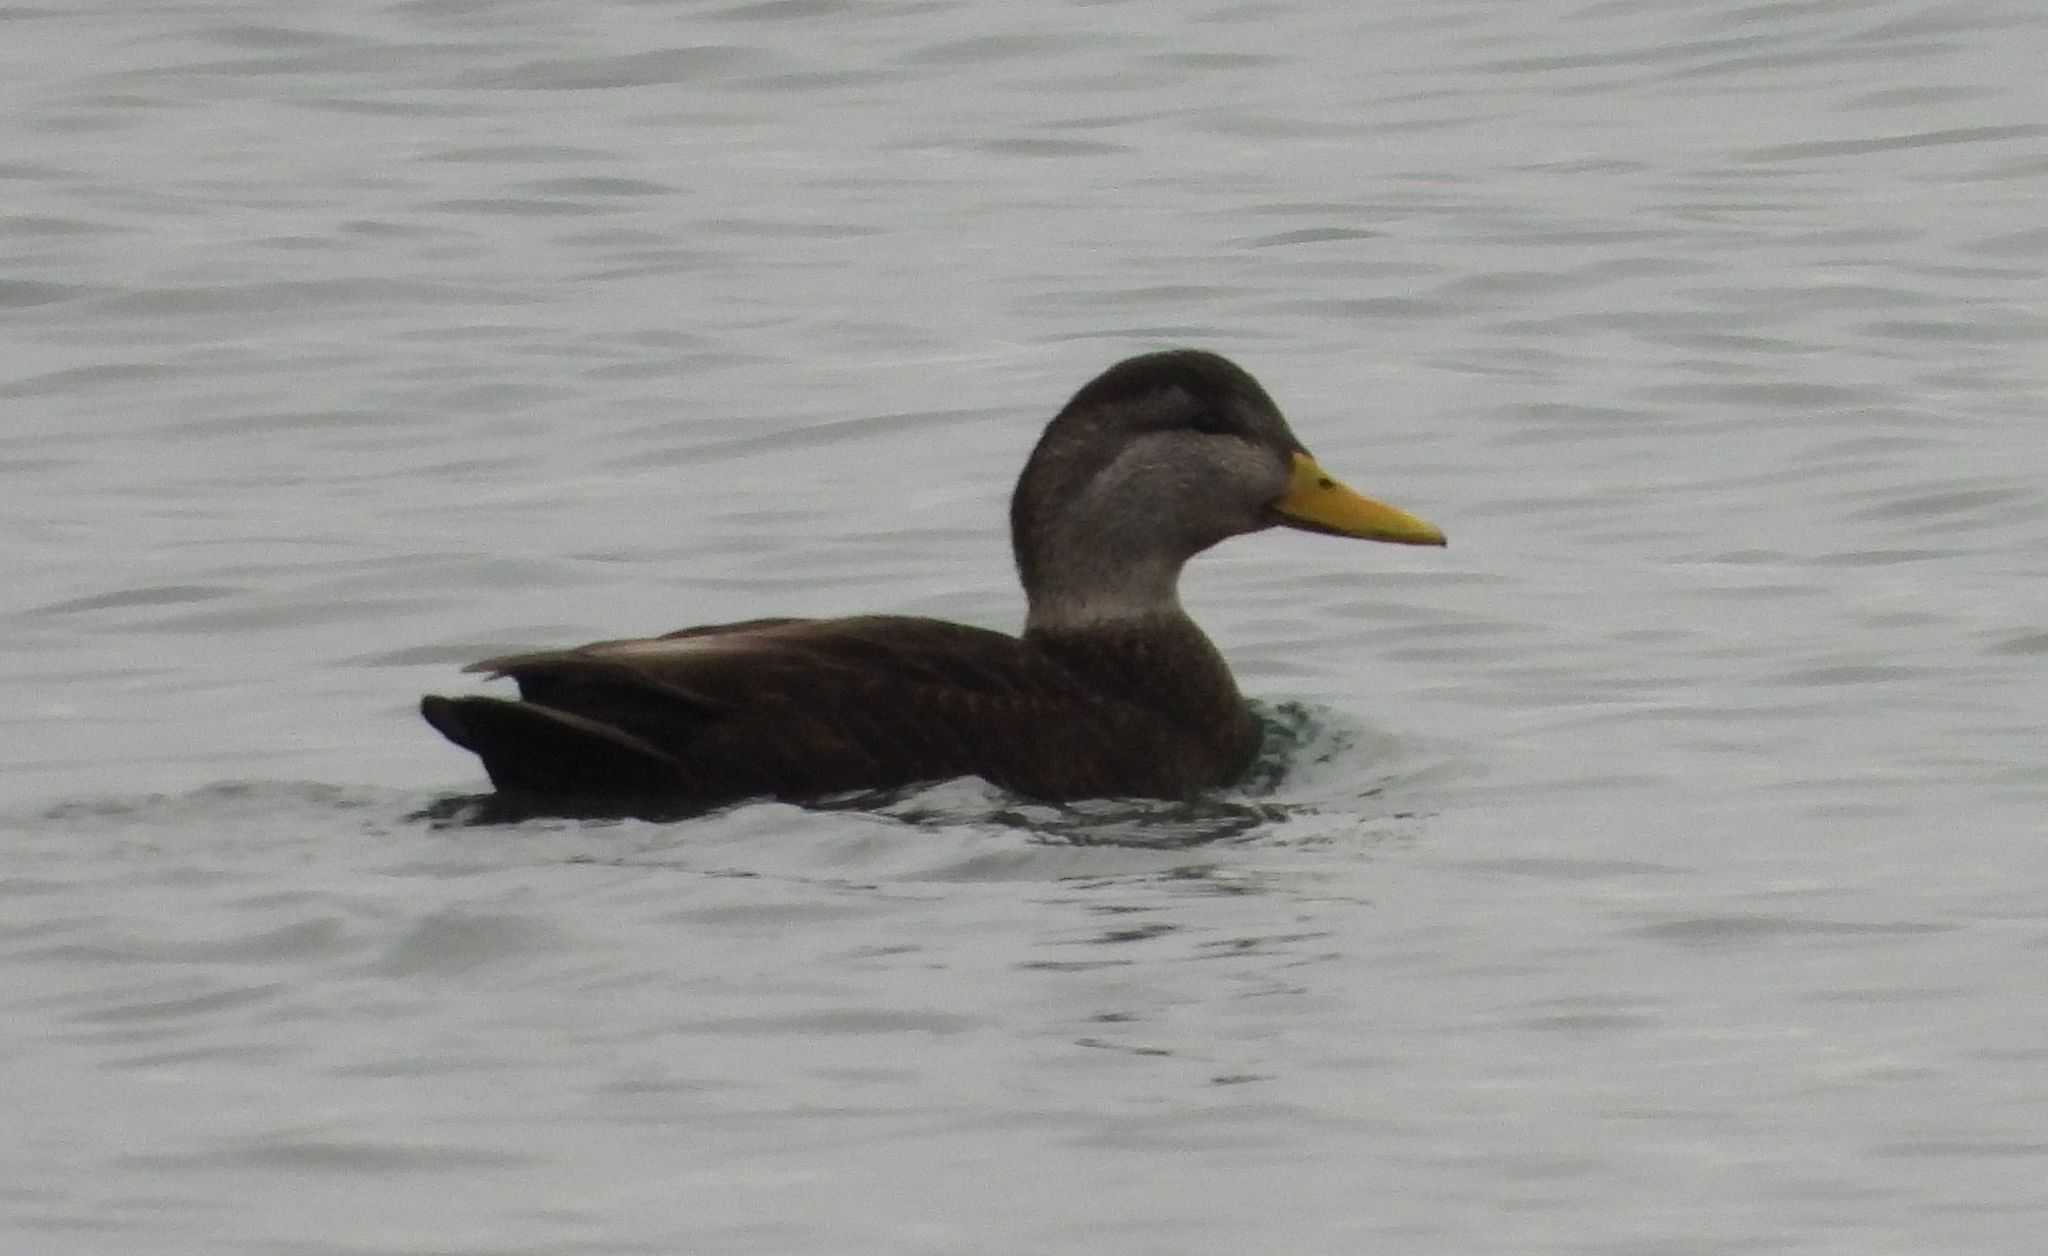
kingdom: Animalia
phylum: Chordata
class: Aves
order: Anseriformes
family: Anatidae
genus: Anas
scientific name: Anas rubripes
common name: American black duck
